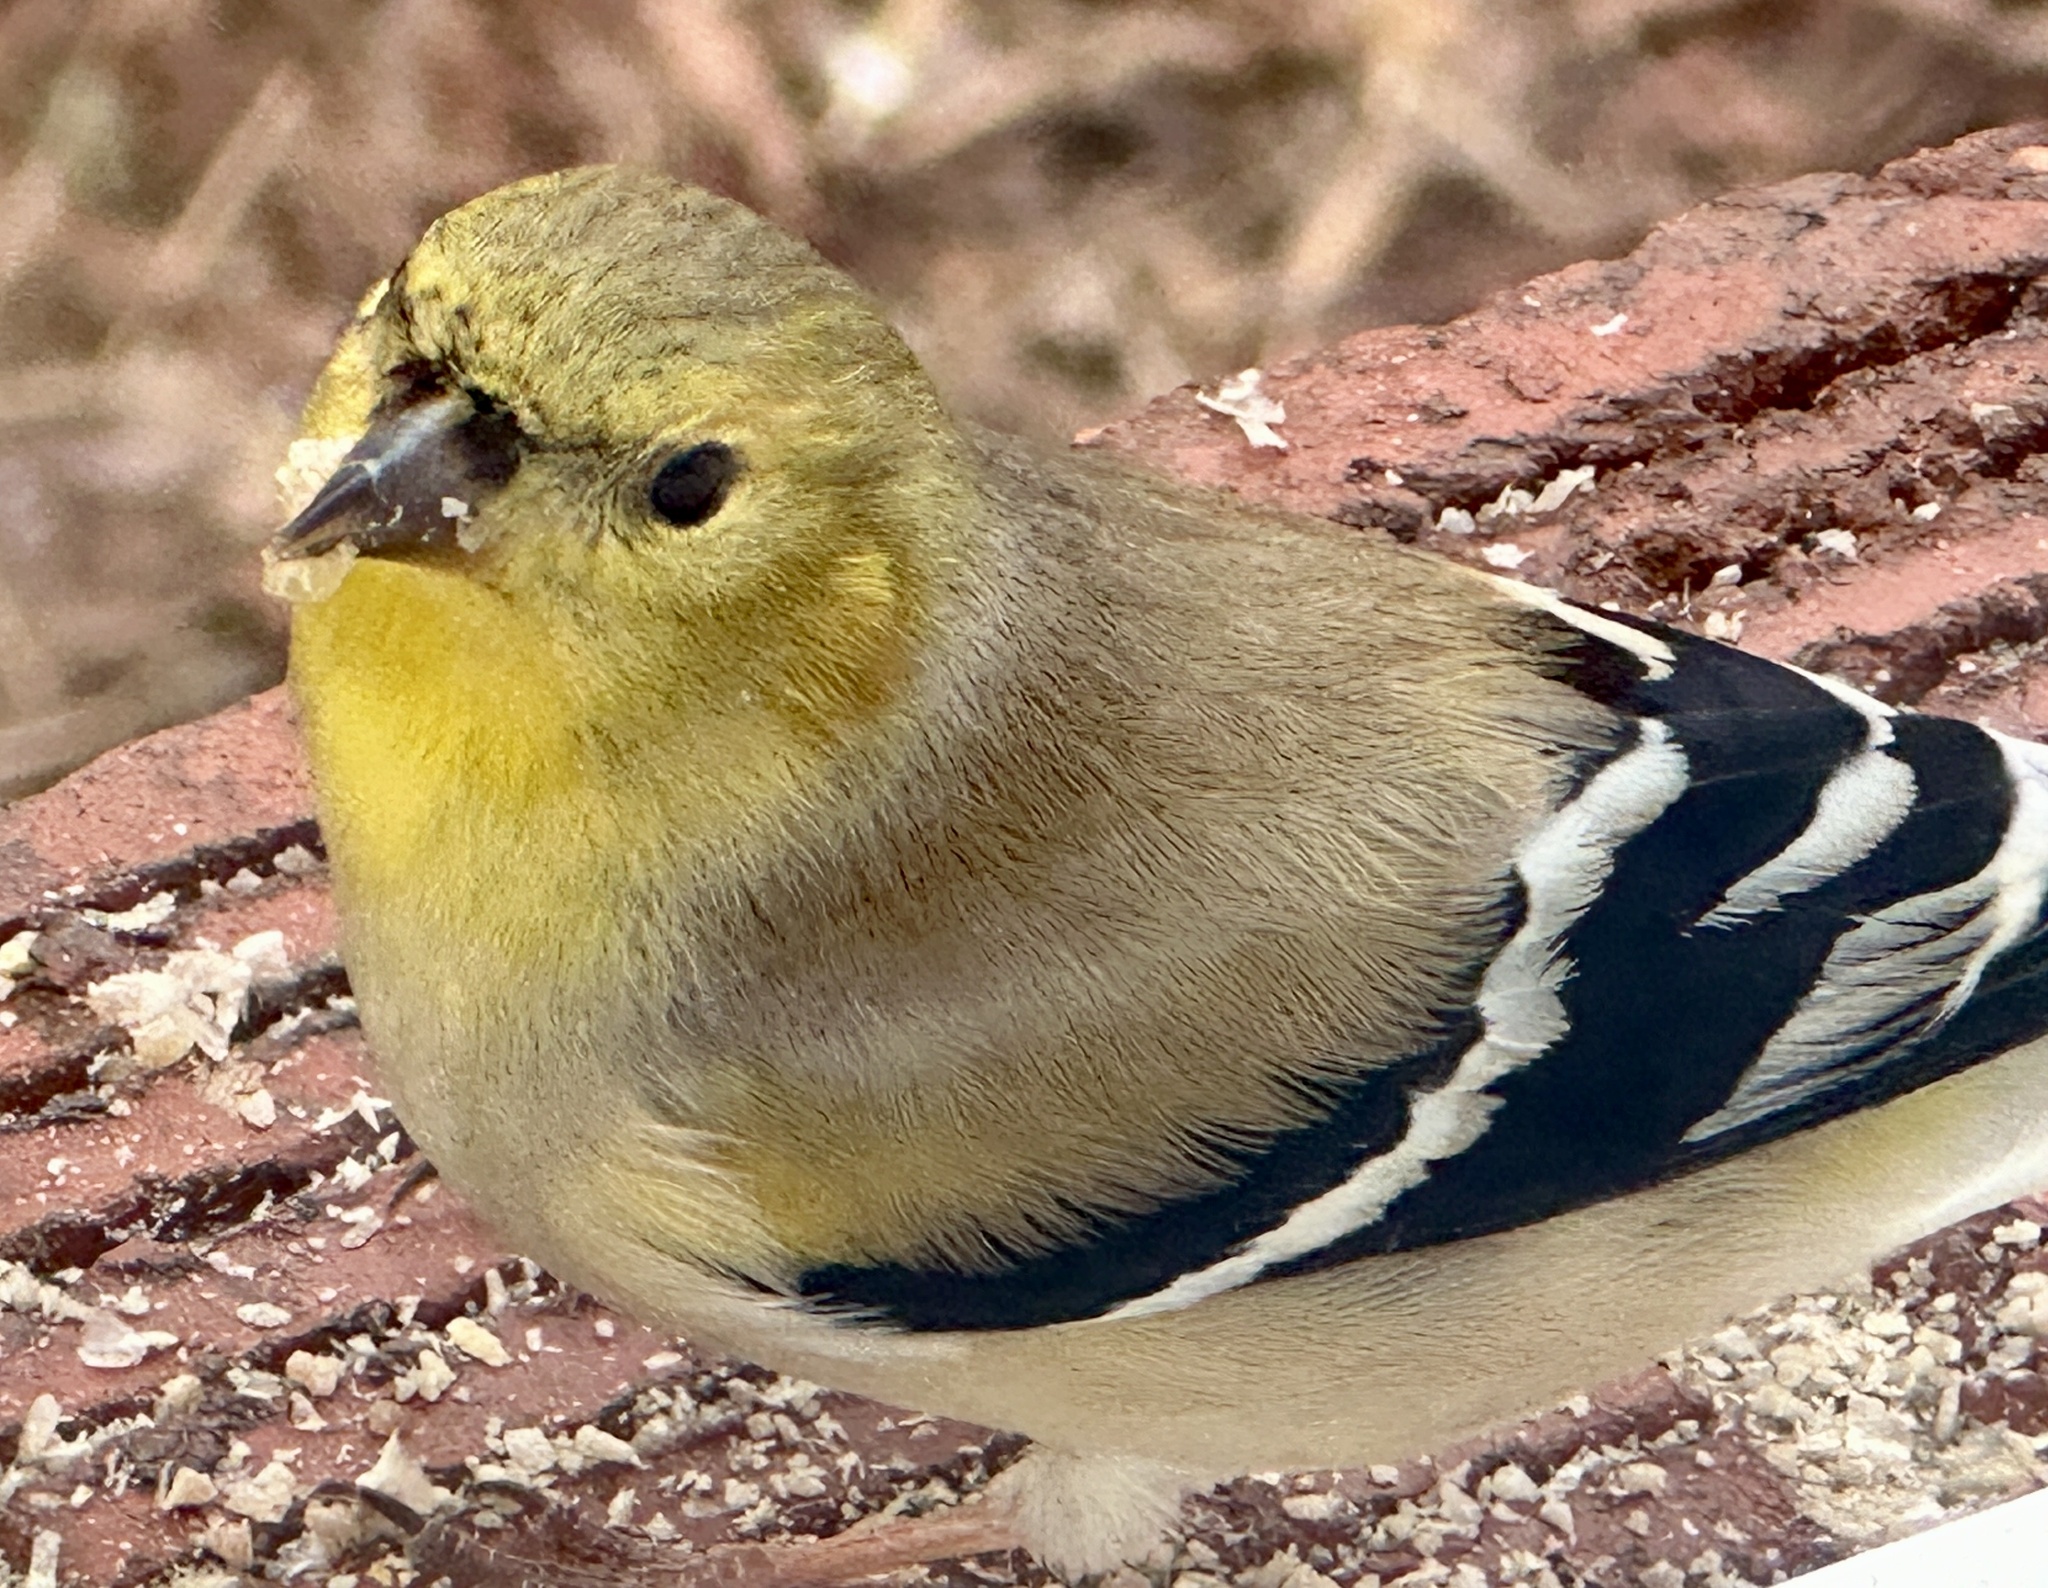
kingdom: Animalia
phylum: Chordata
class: Aves
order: Passeriformes
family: Fringillidae
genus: Spinus
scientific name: Spinus tristis
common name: American goldfinch
